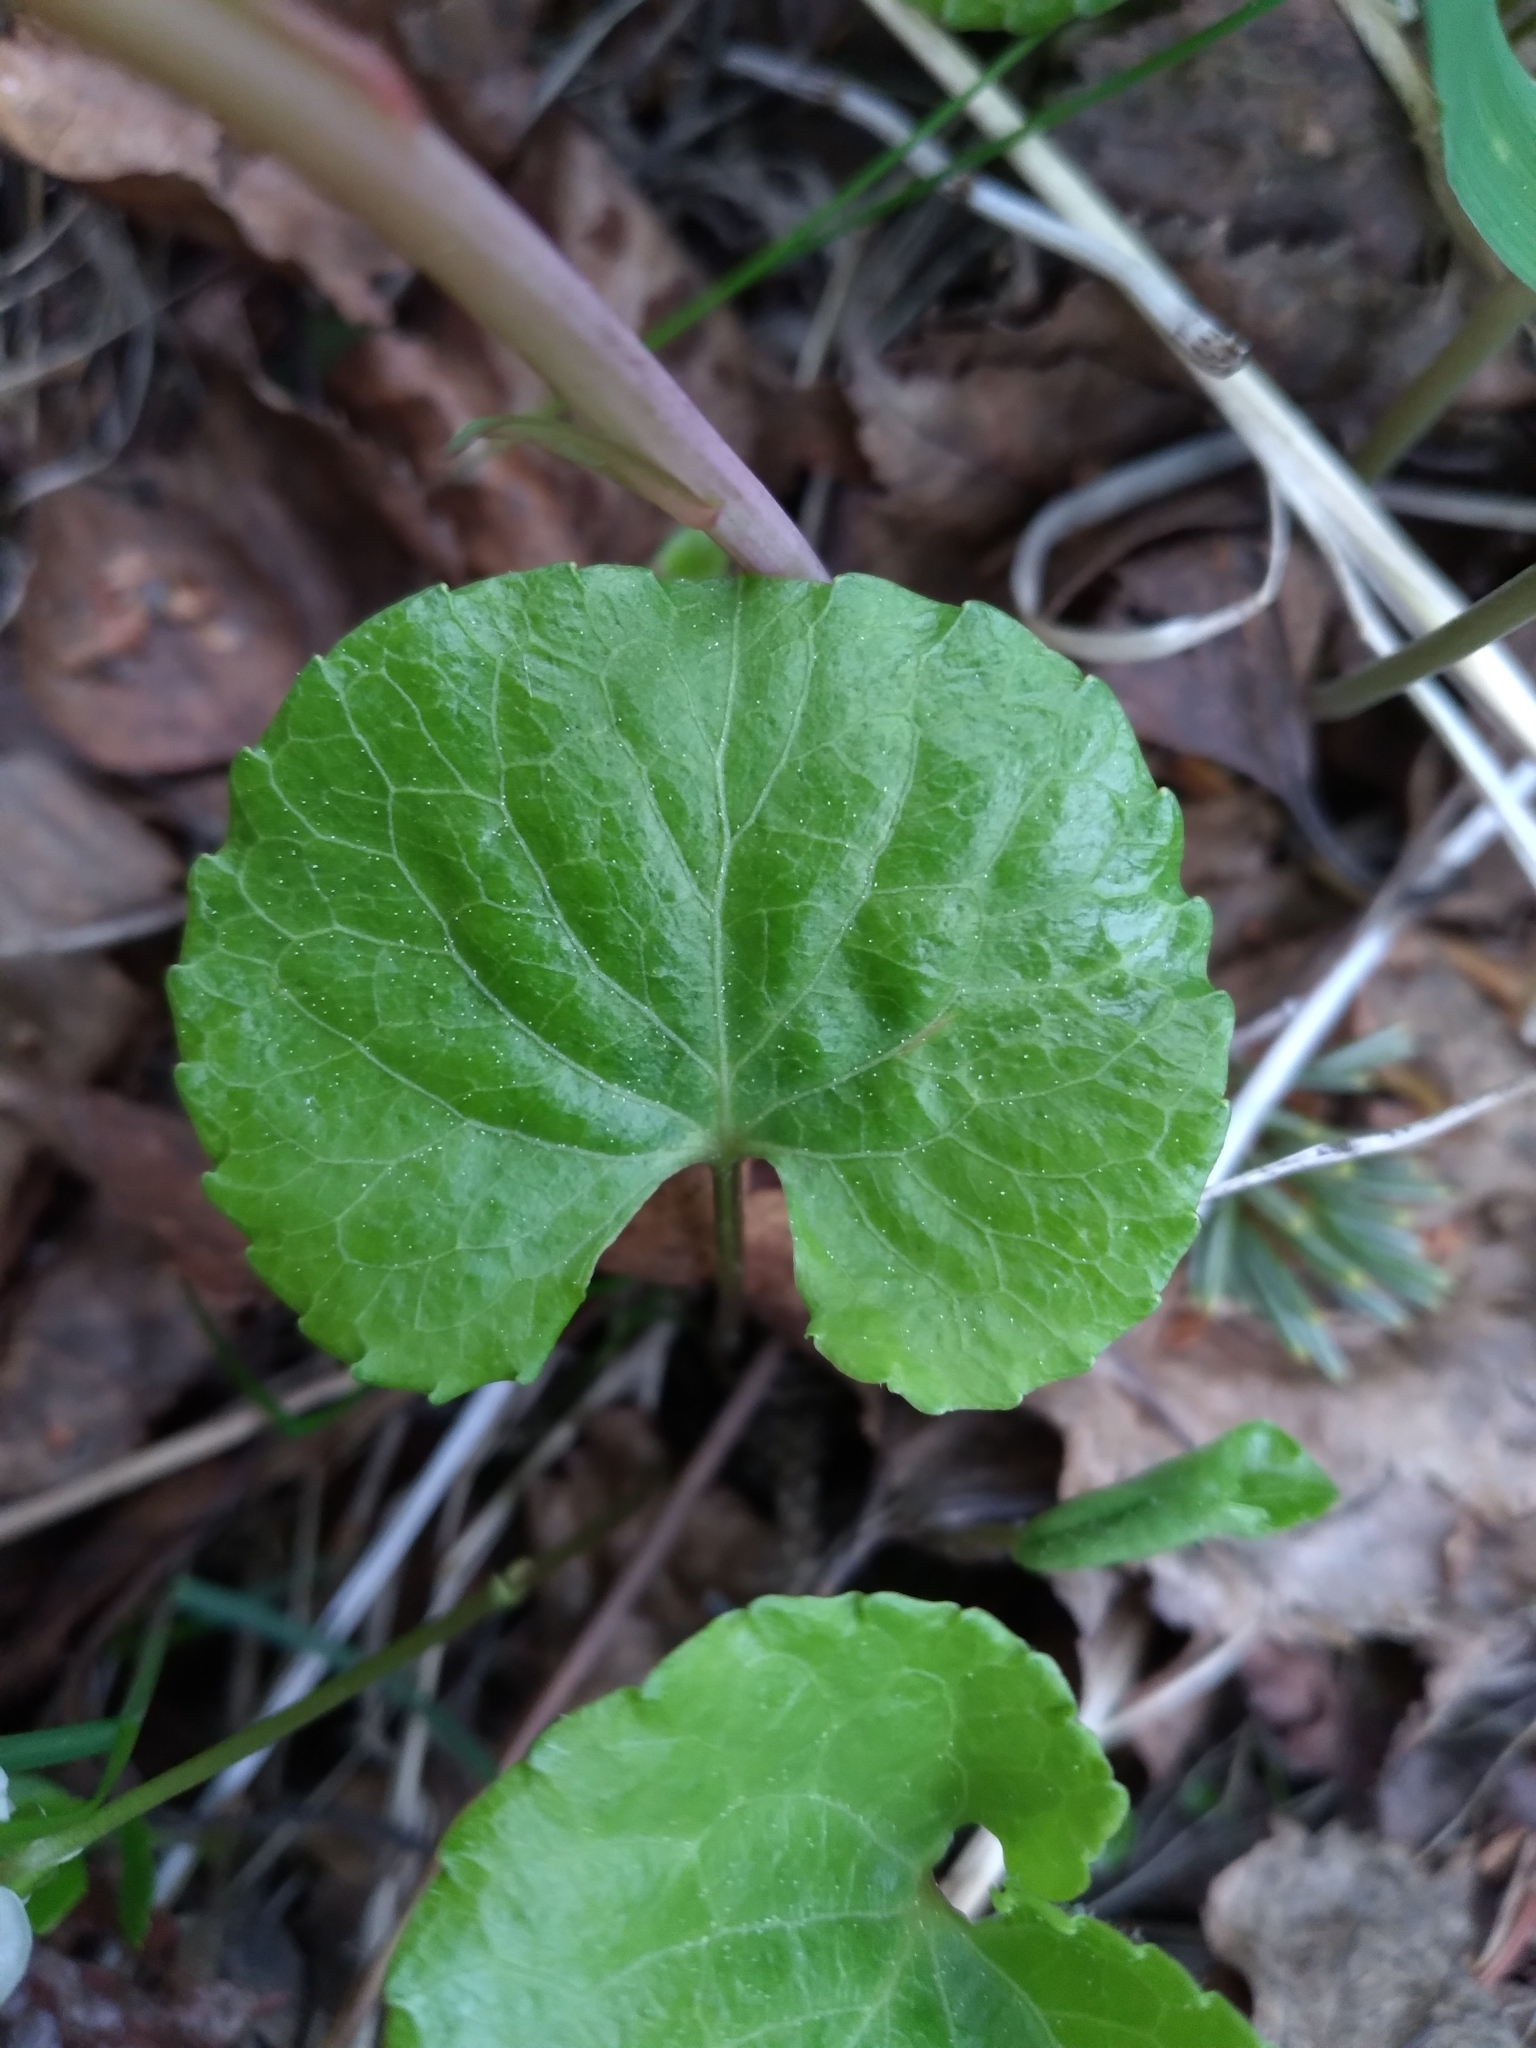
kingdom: Plantae
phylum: Tracheophyta
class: Magnoliopsida
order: Malpighiales
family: Violaceae
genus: Viola
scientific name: Viola renifolia
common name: Kidney-leaf violet
